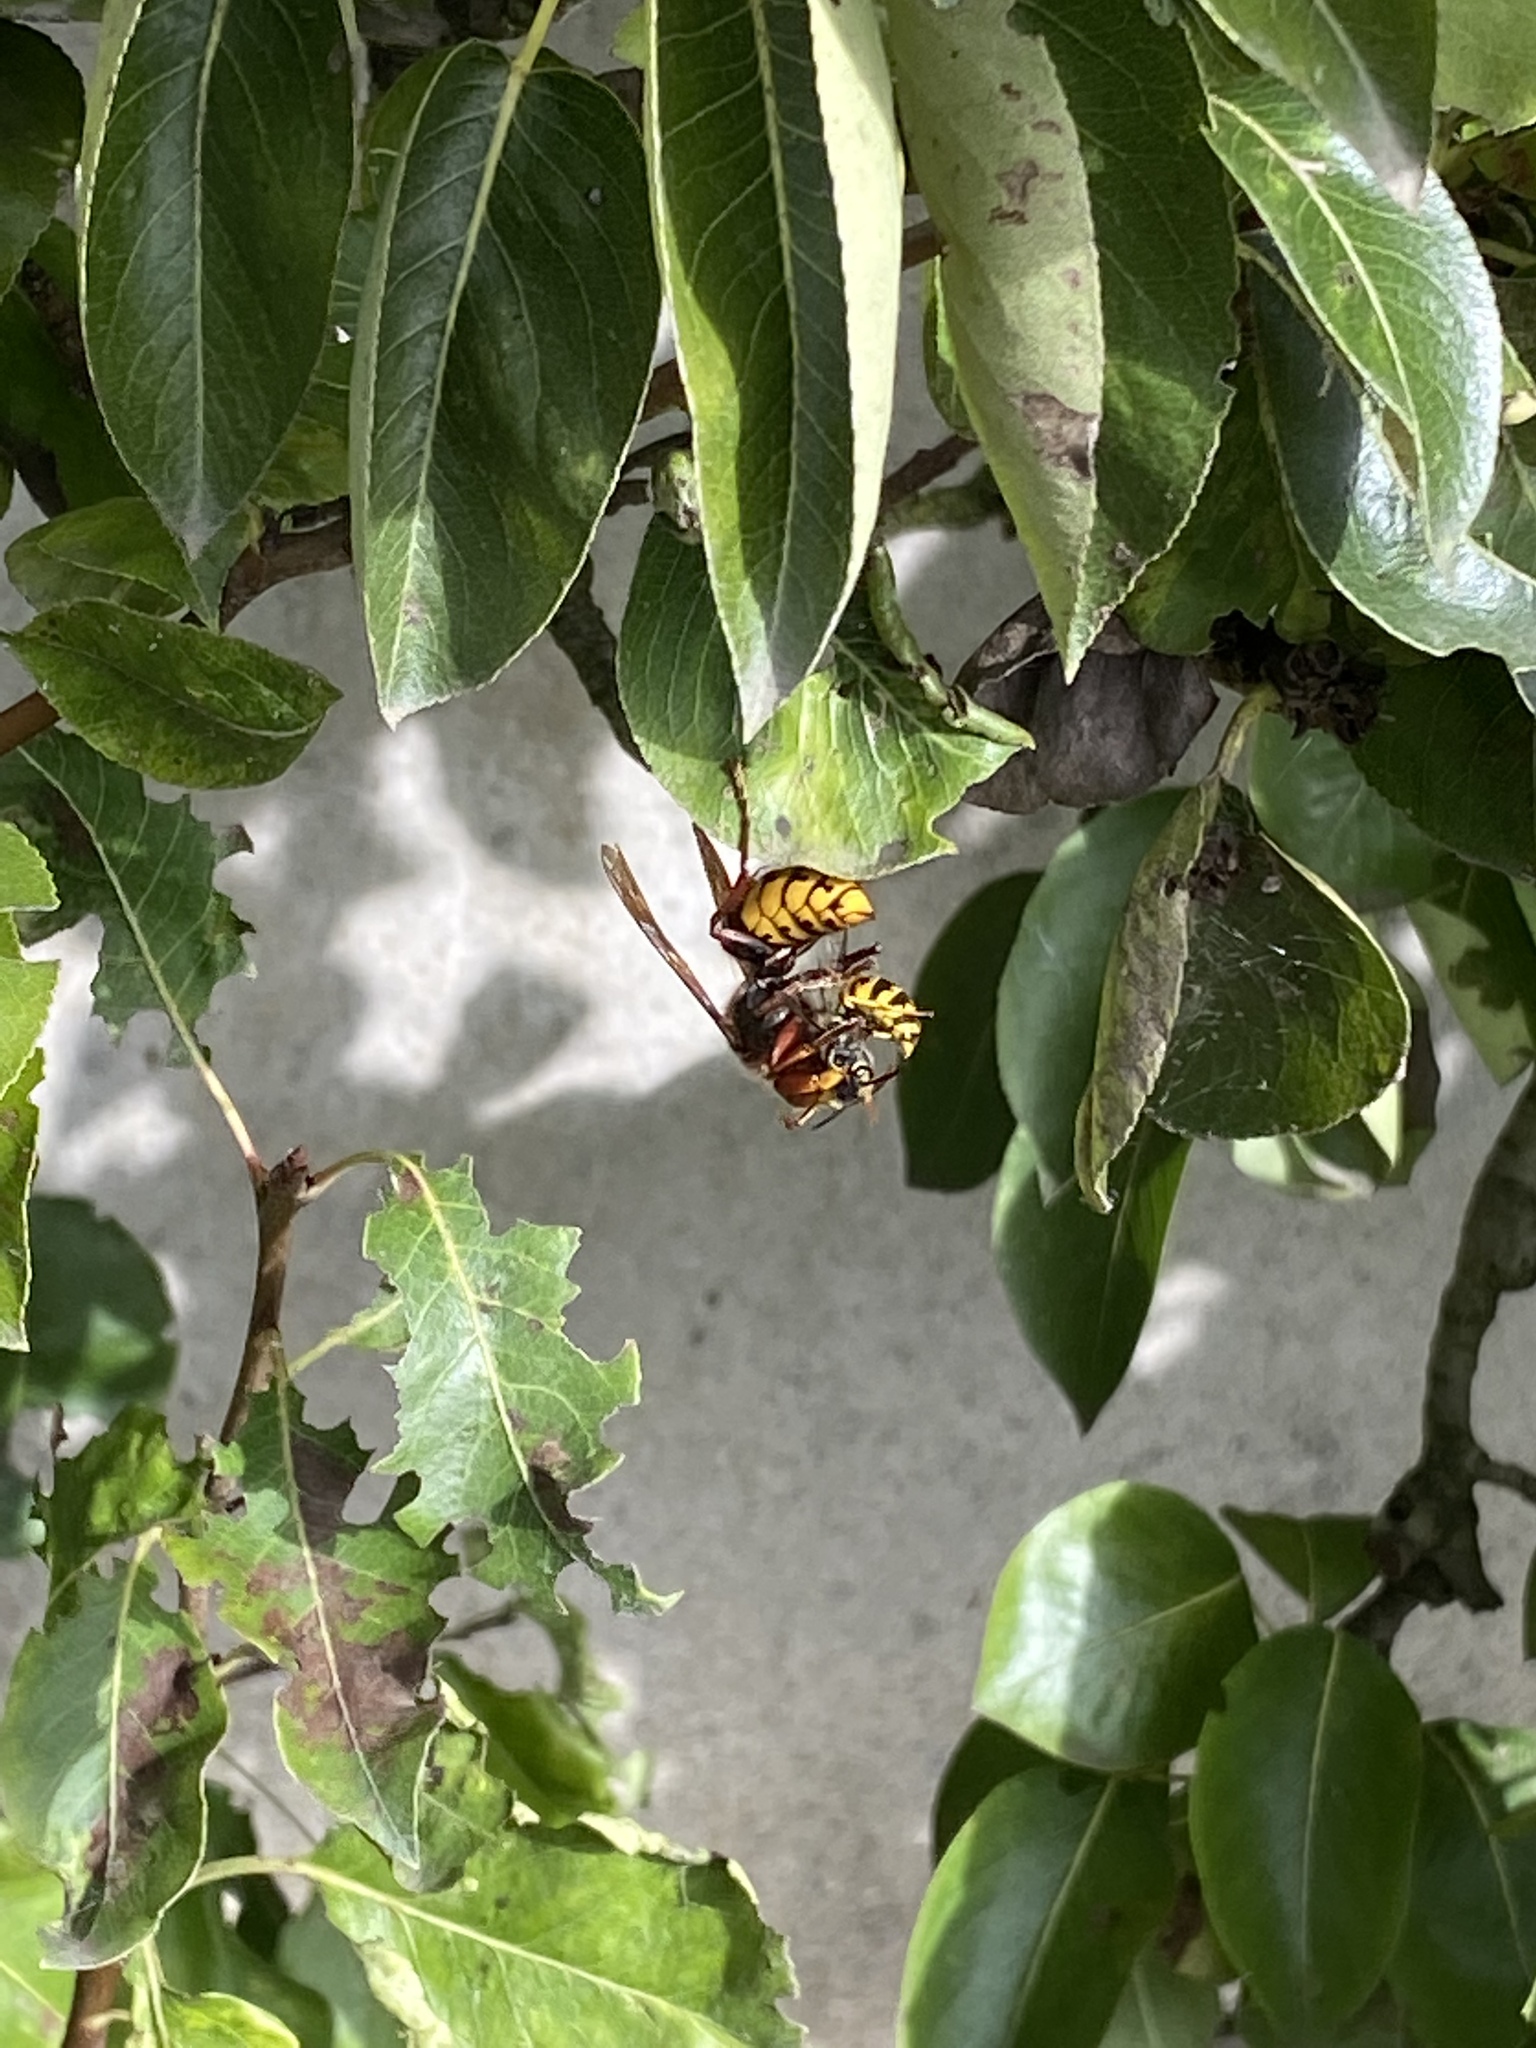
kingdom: Animalia
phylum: Arthropoda
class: Insecta
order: Hymenoptera
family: Vespidae
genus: Vespa
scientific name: Vespa crabro
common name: Hornet
